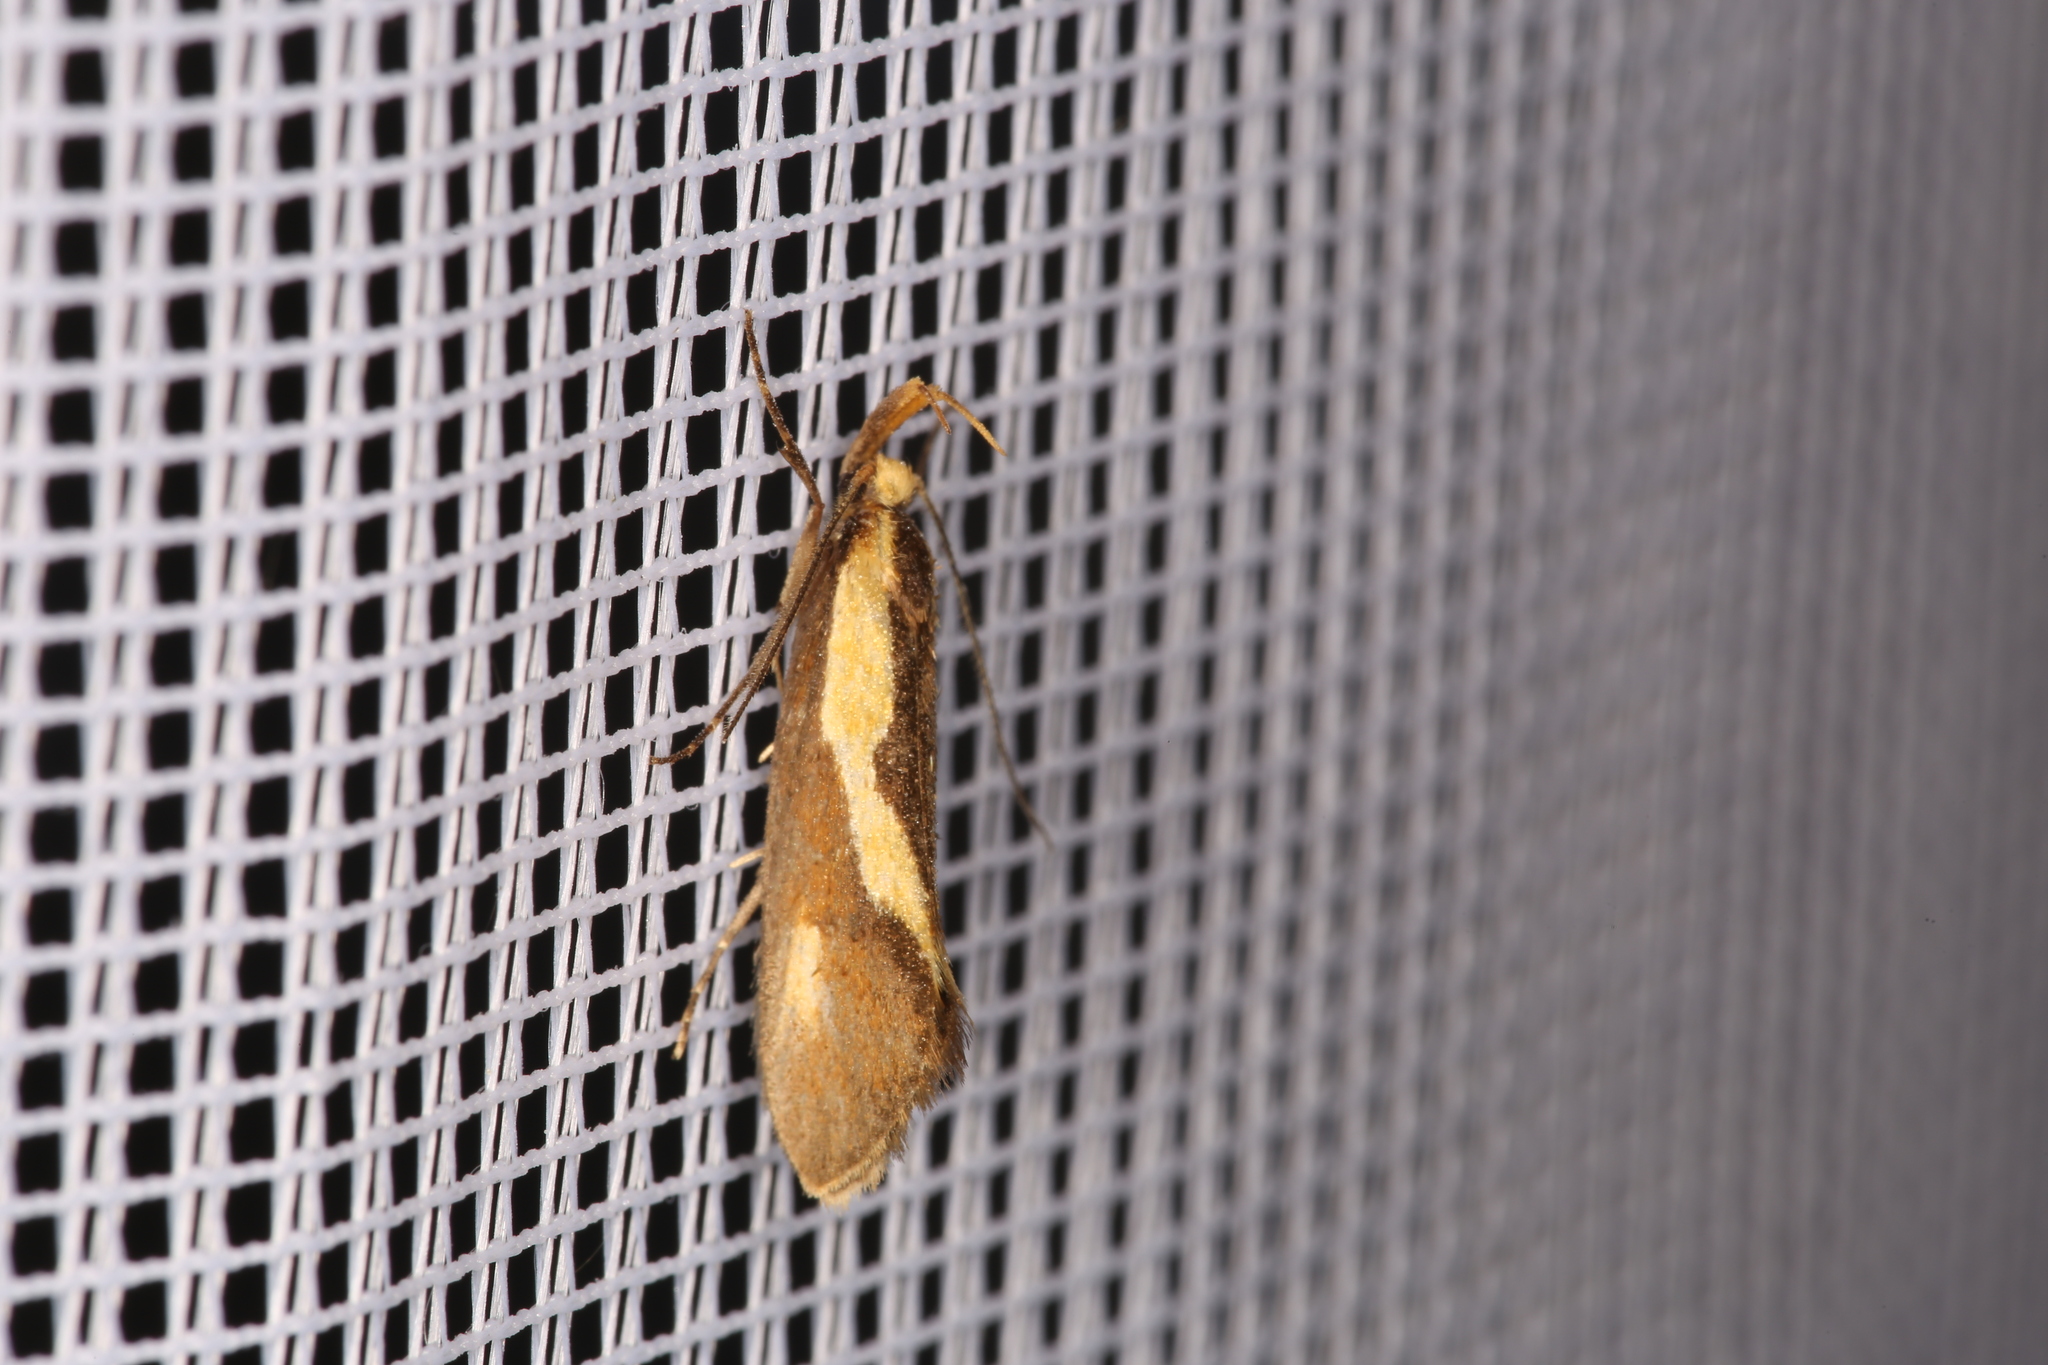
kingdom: Animalia
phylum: Arthropoda
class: Insecta
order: Lepidoptera
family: Oecophoridae
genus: Harpella
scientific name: Harpella forficella
